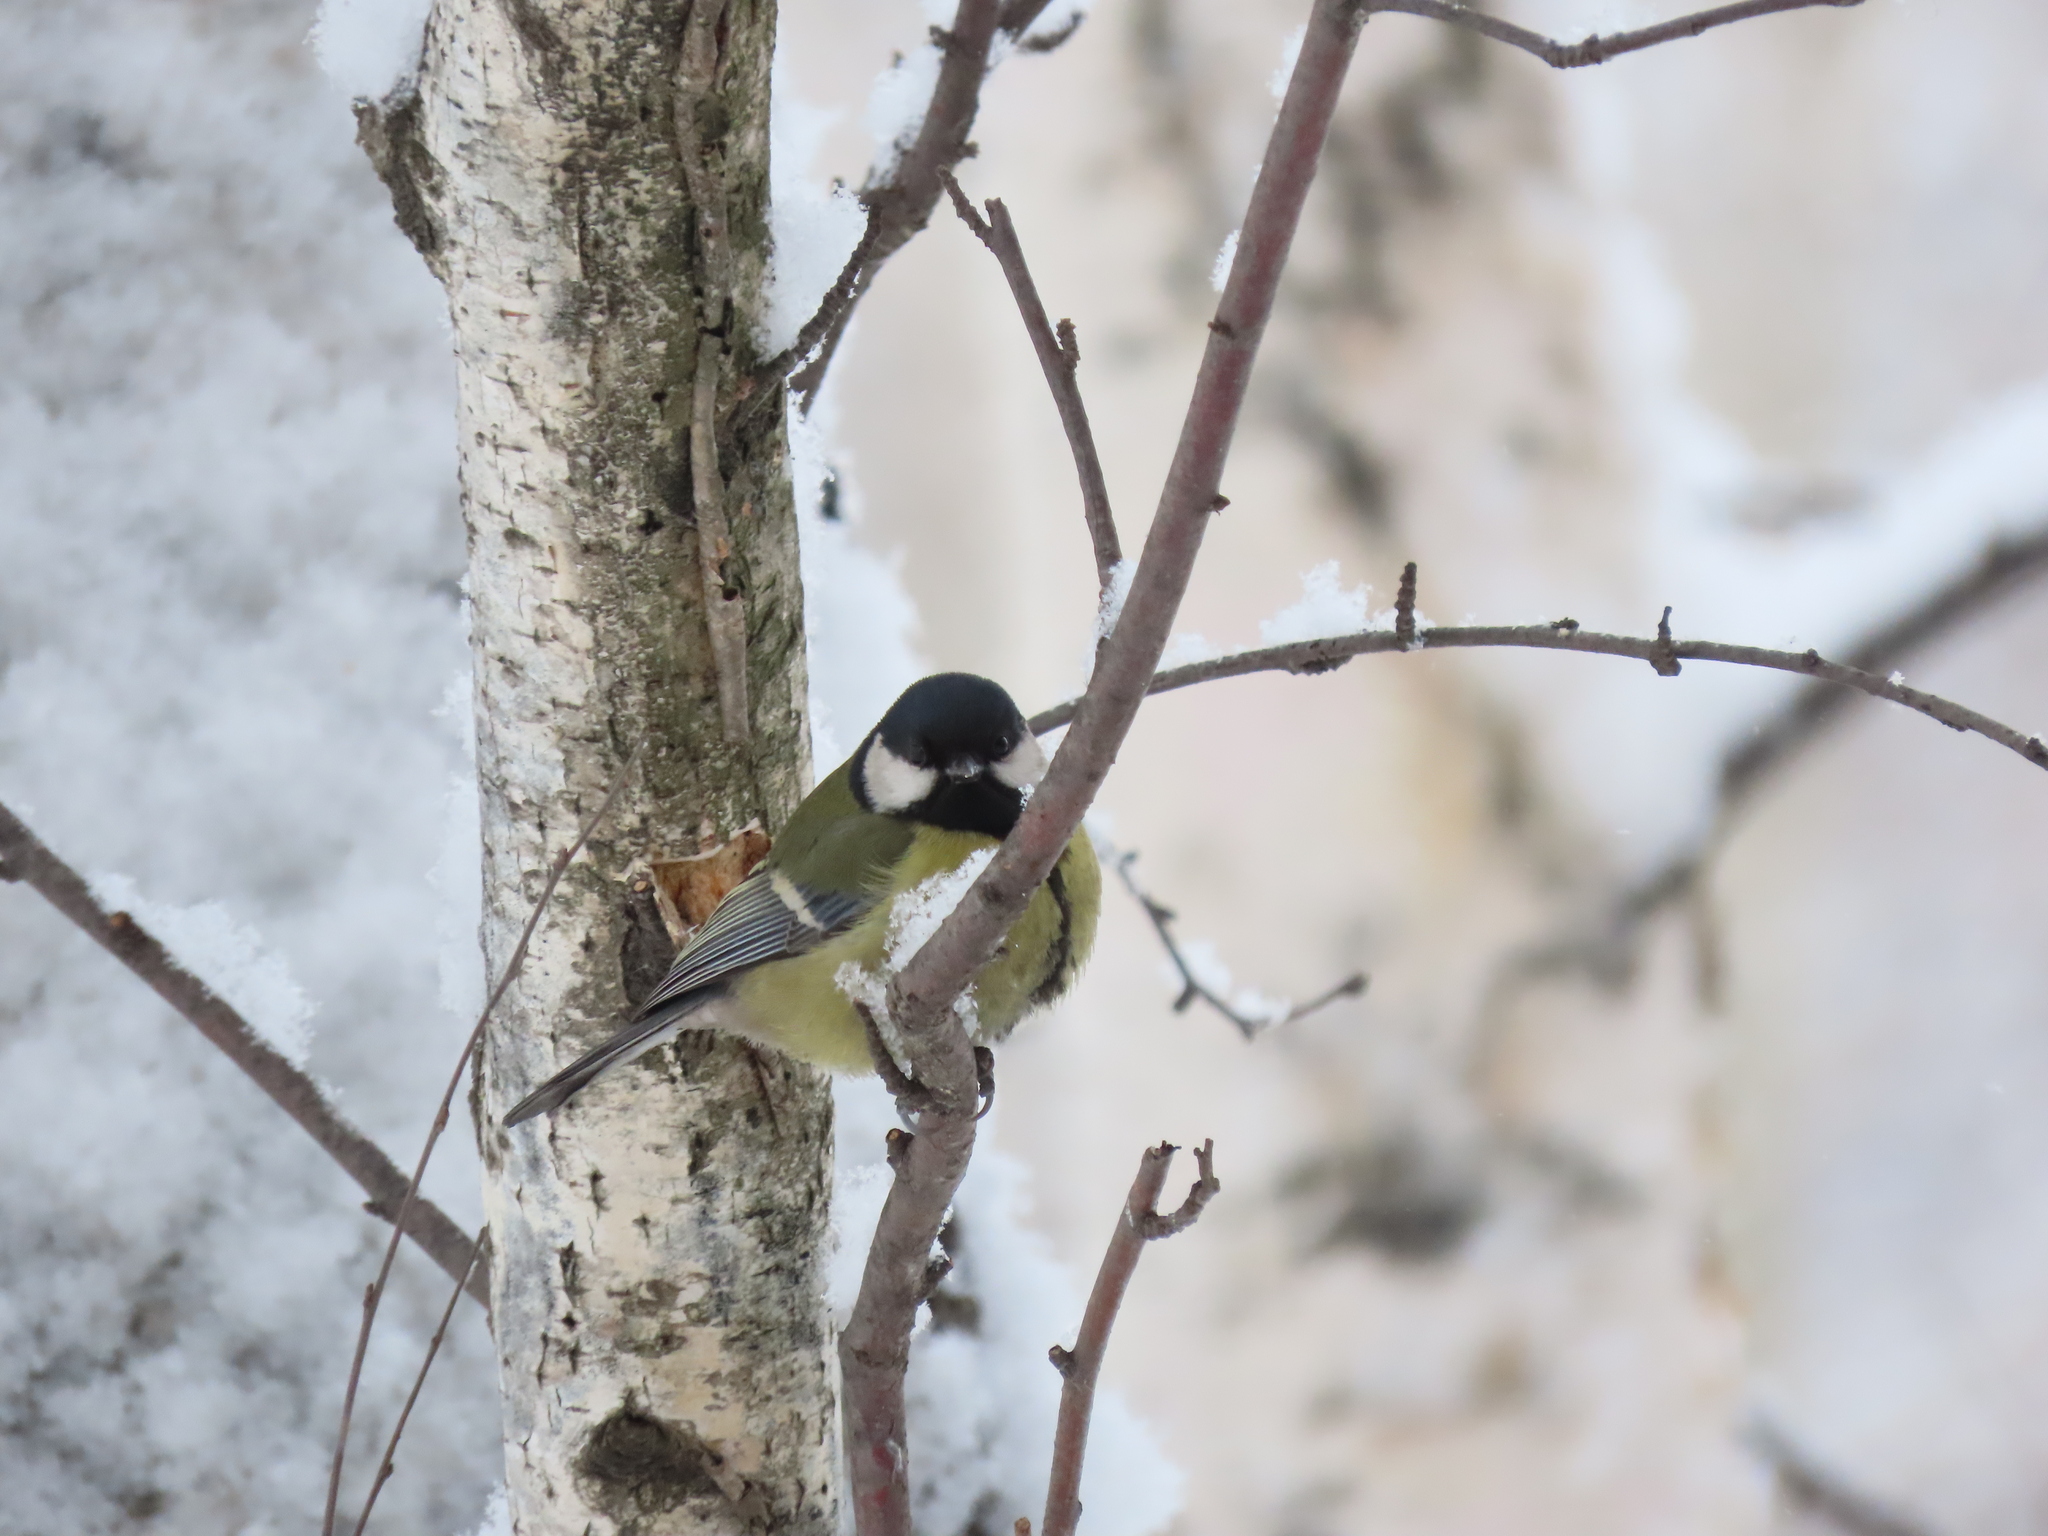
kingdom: Animalia
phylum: Chordata
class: Aves
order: Passeriformes
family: Paridae
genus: Parus
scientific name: Parus major
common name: Great tit
